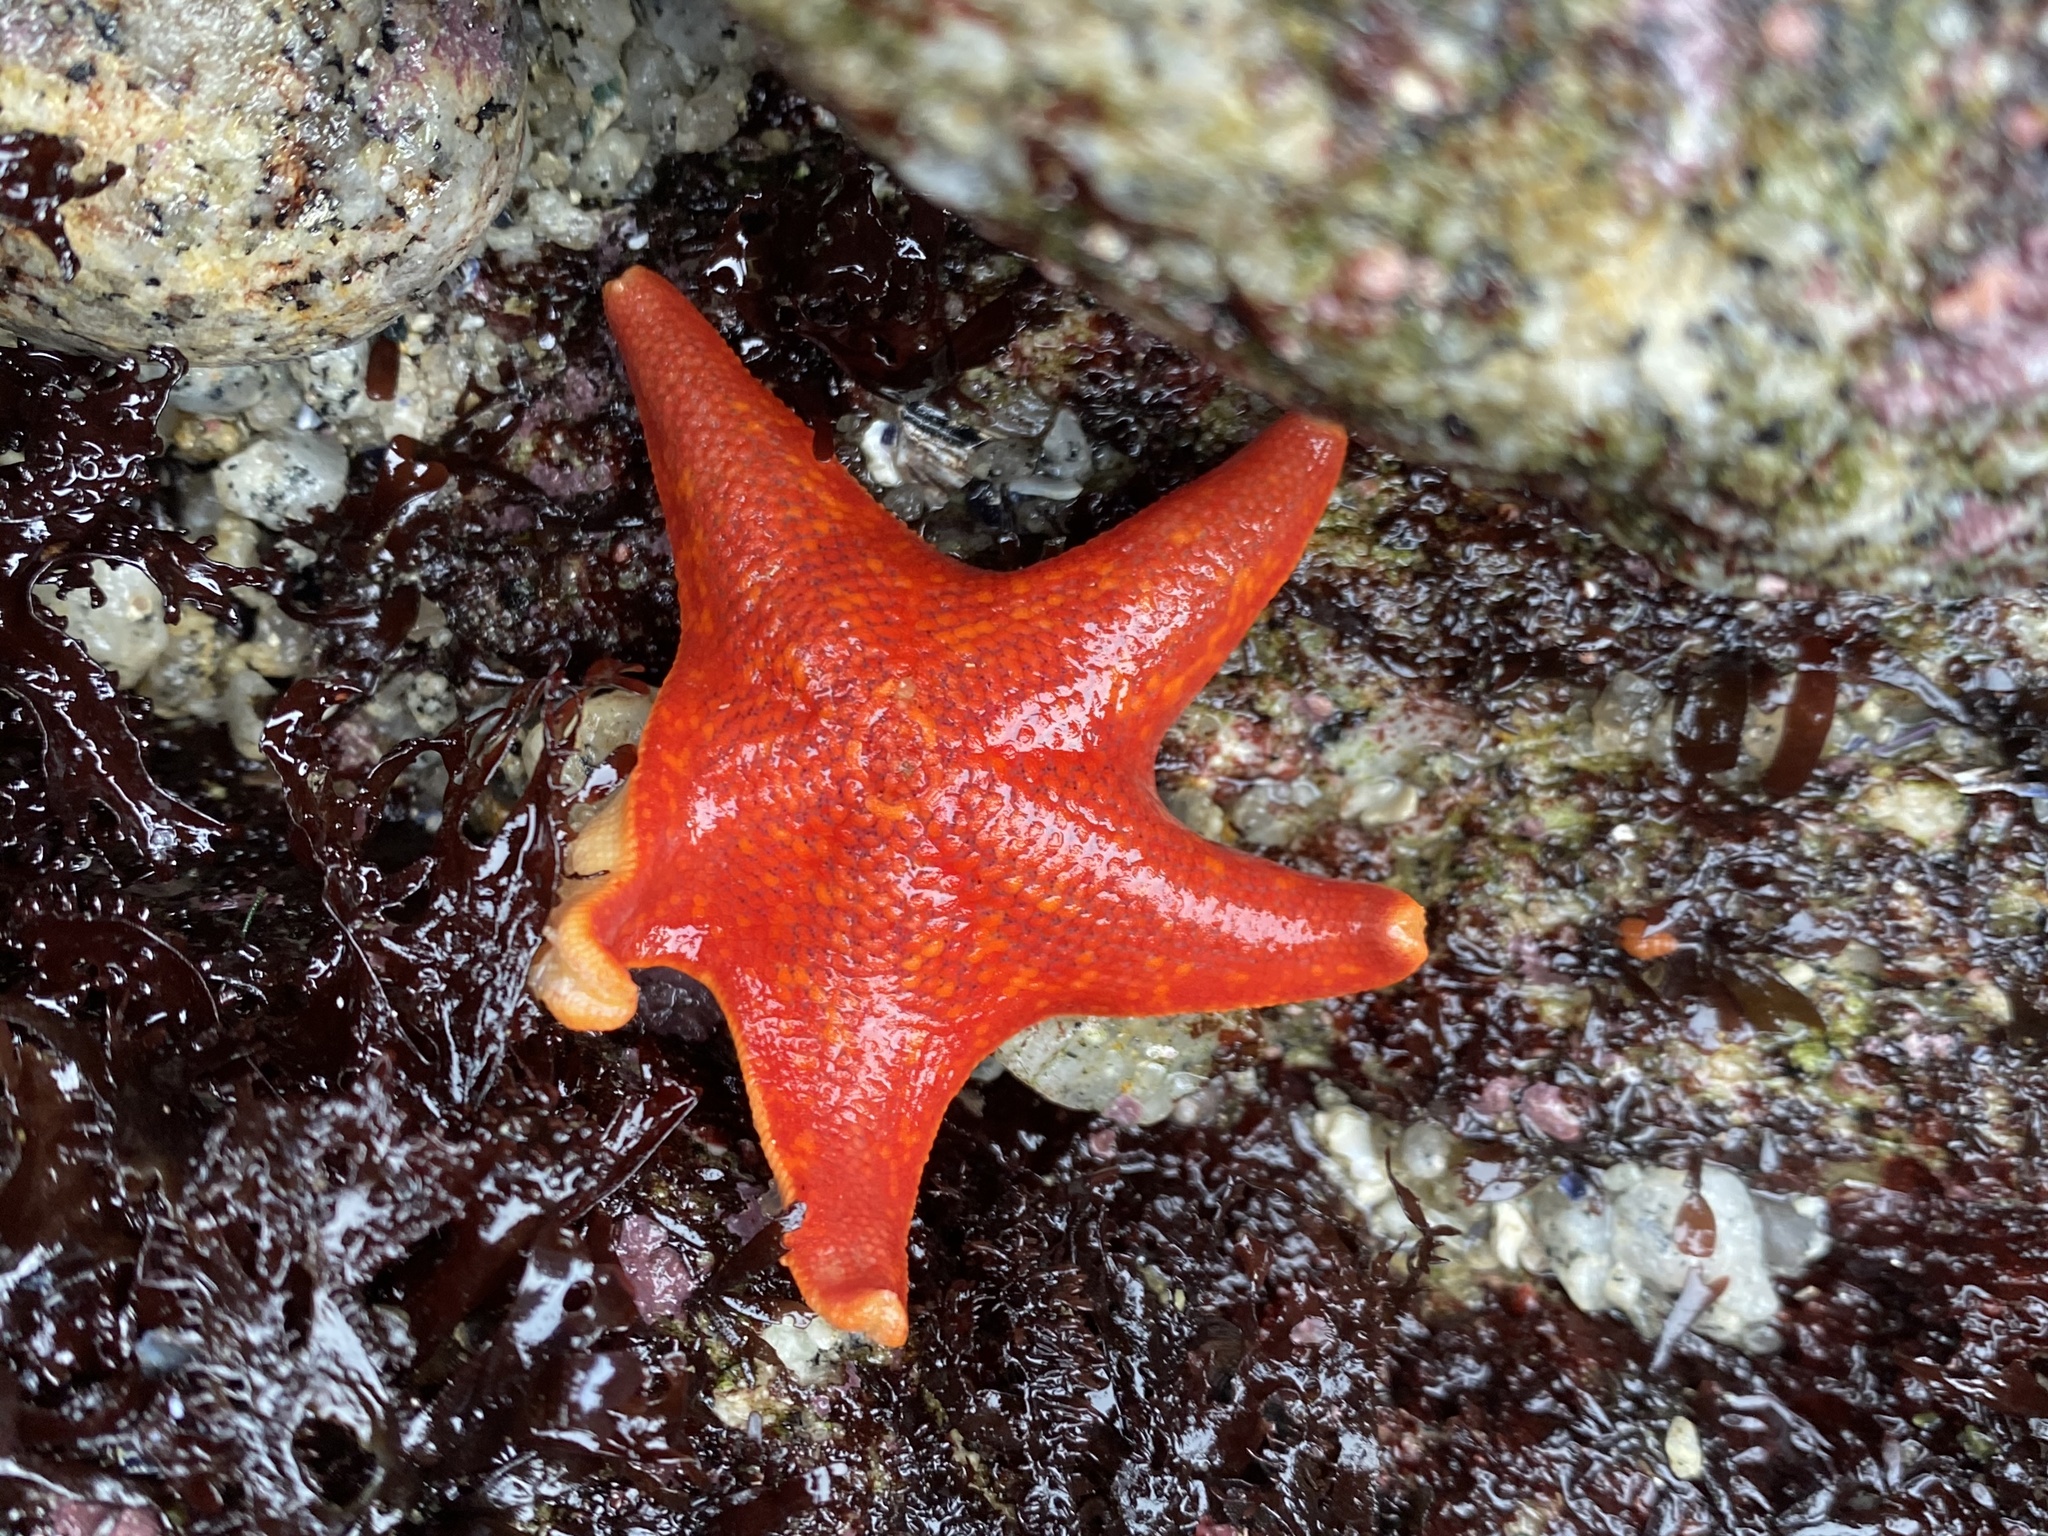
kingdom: Animalia
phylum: Echinodermata
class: Asteroidea
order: Valvatida
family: Asterinidae
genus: Patiria
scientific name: Patiria miniata
